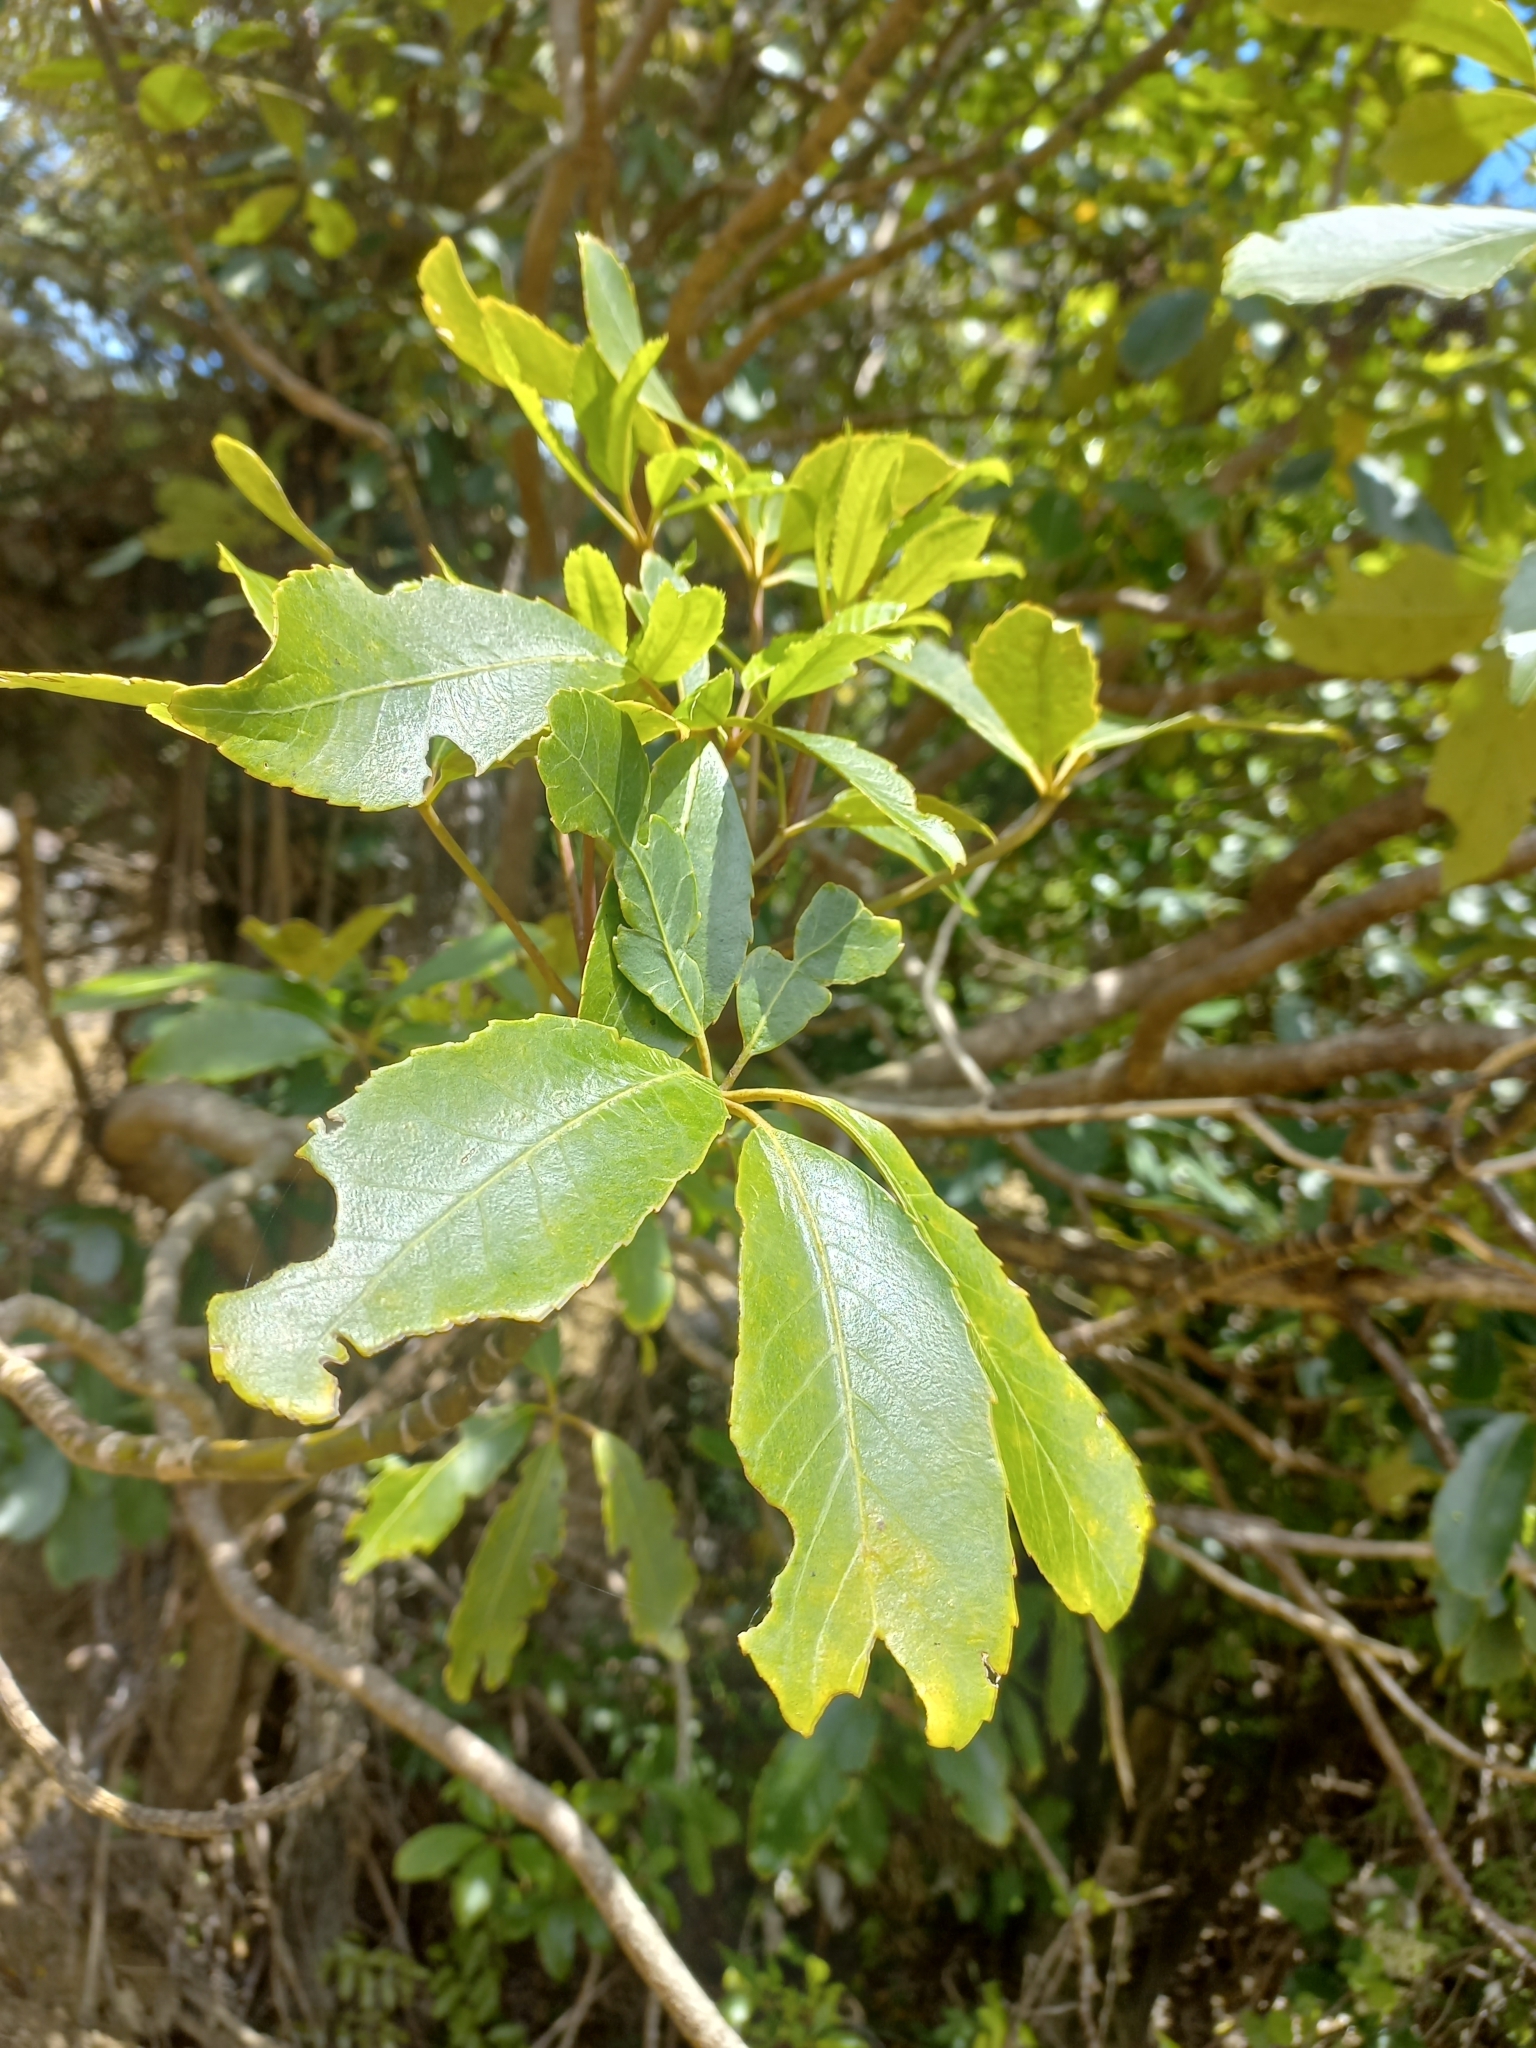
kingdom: Plantae
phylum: Tracheophyta
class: Magnoliopsida
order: Apiales
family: Araliaceae
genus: Neopanax
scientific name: Neopanax arboreus
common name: Five-fingers
